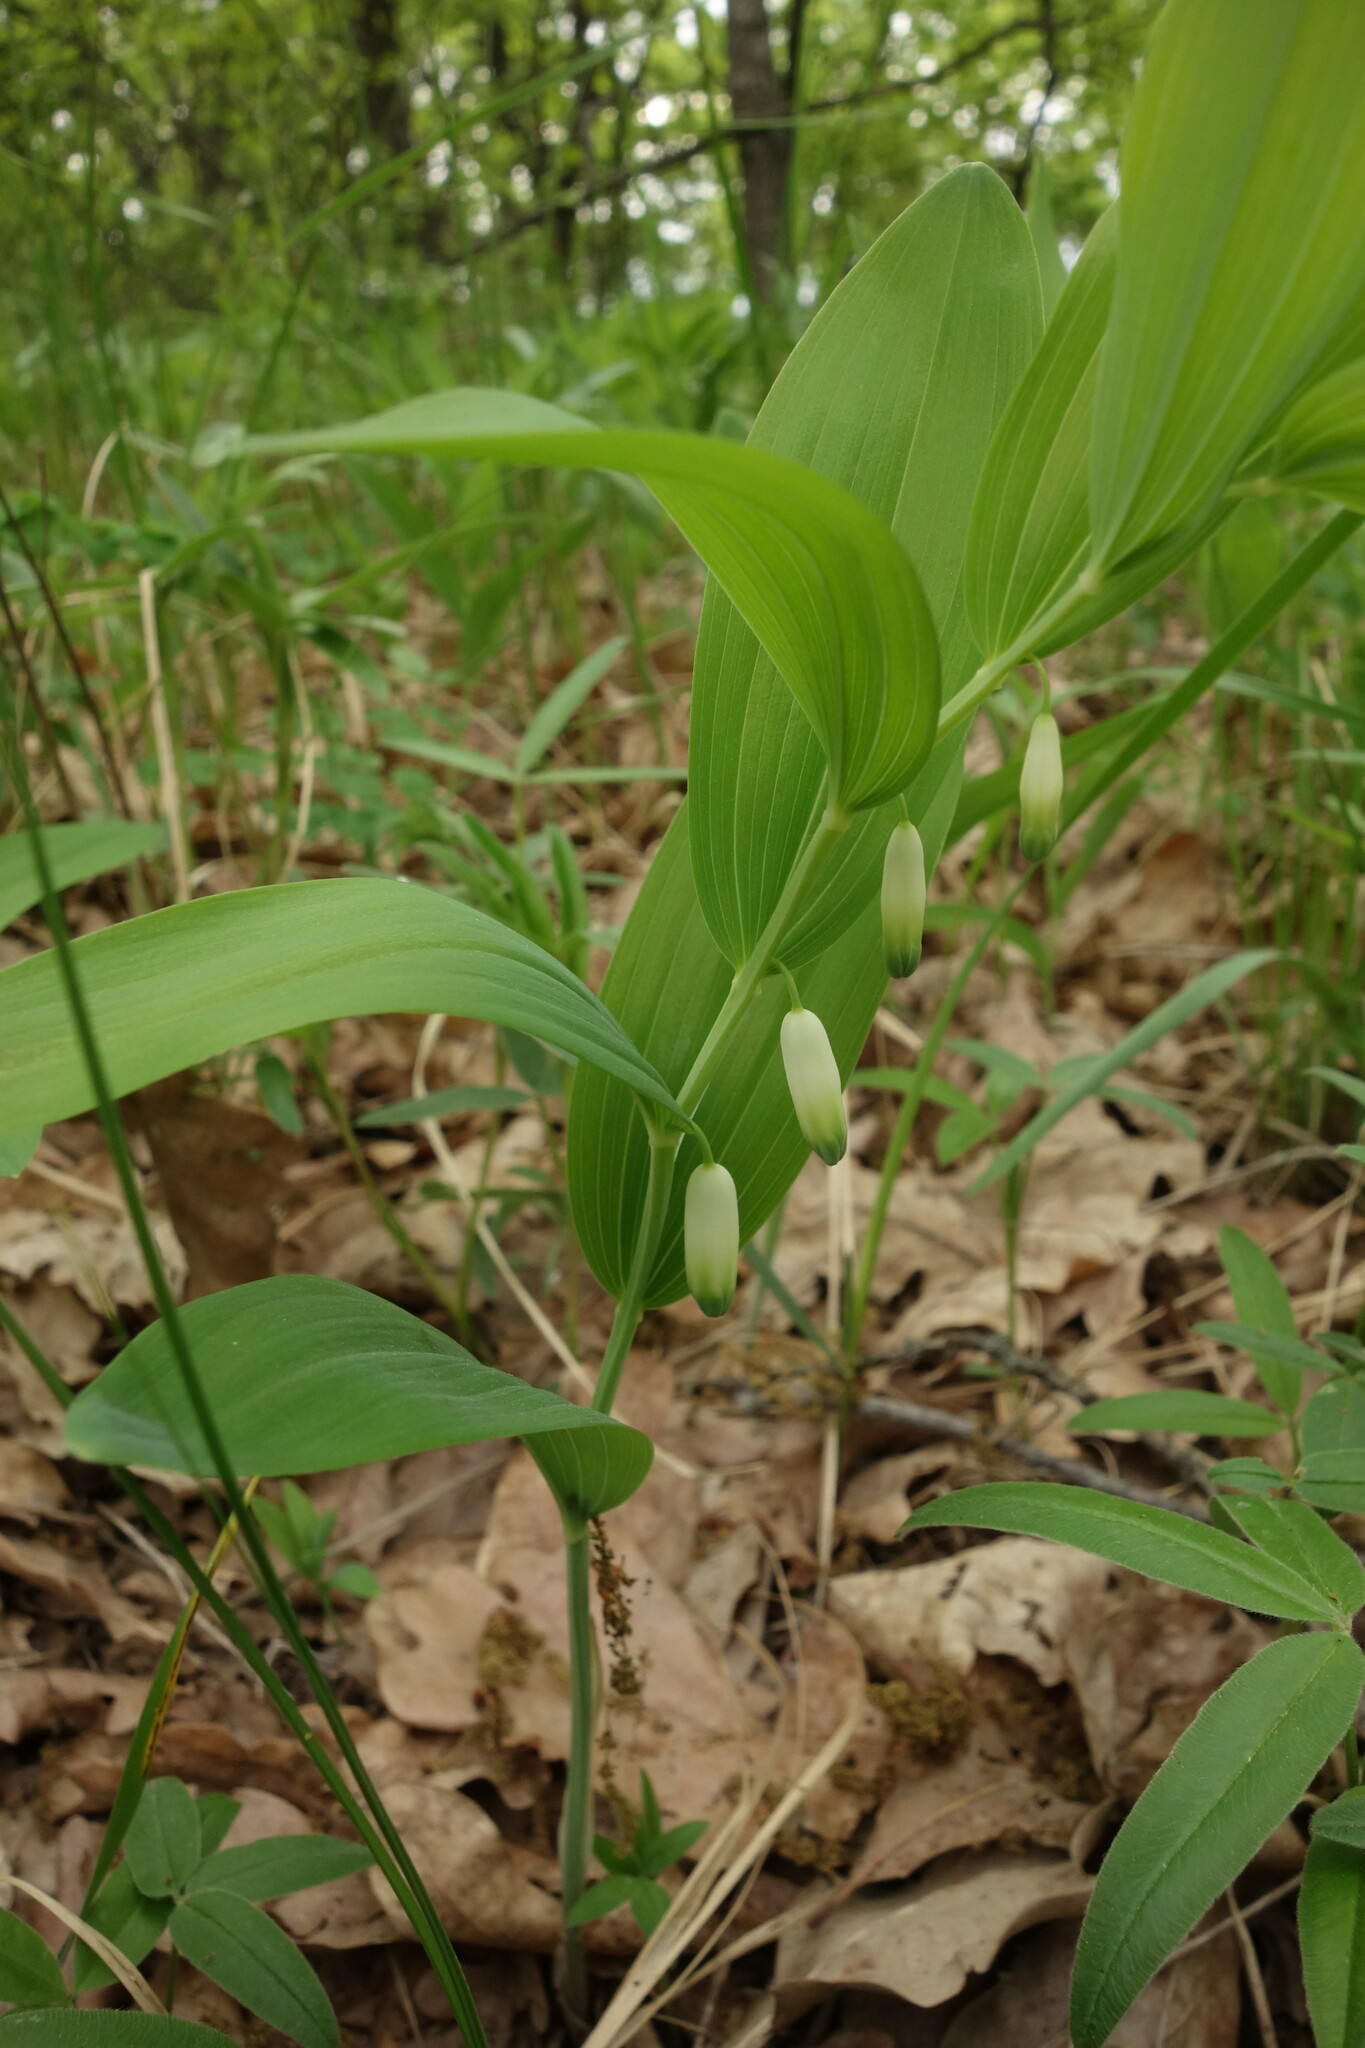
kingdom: Plantae
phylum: Tracheophyta
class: Liliopsida
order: Asparagales
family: Asparagaceae
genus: Polygonatum
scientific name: Polygonatum odoratum
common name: Angular solomon's-seal
